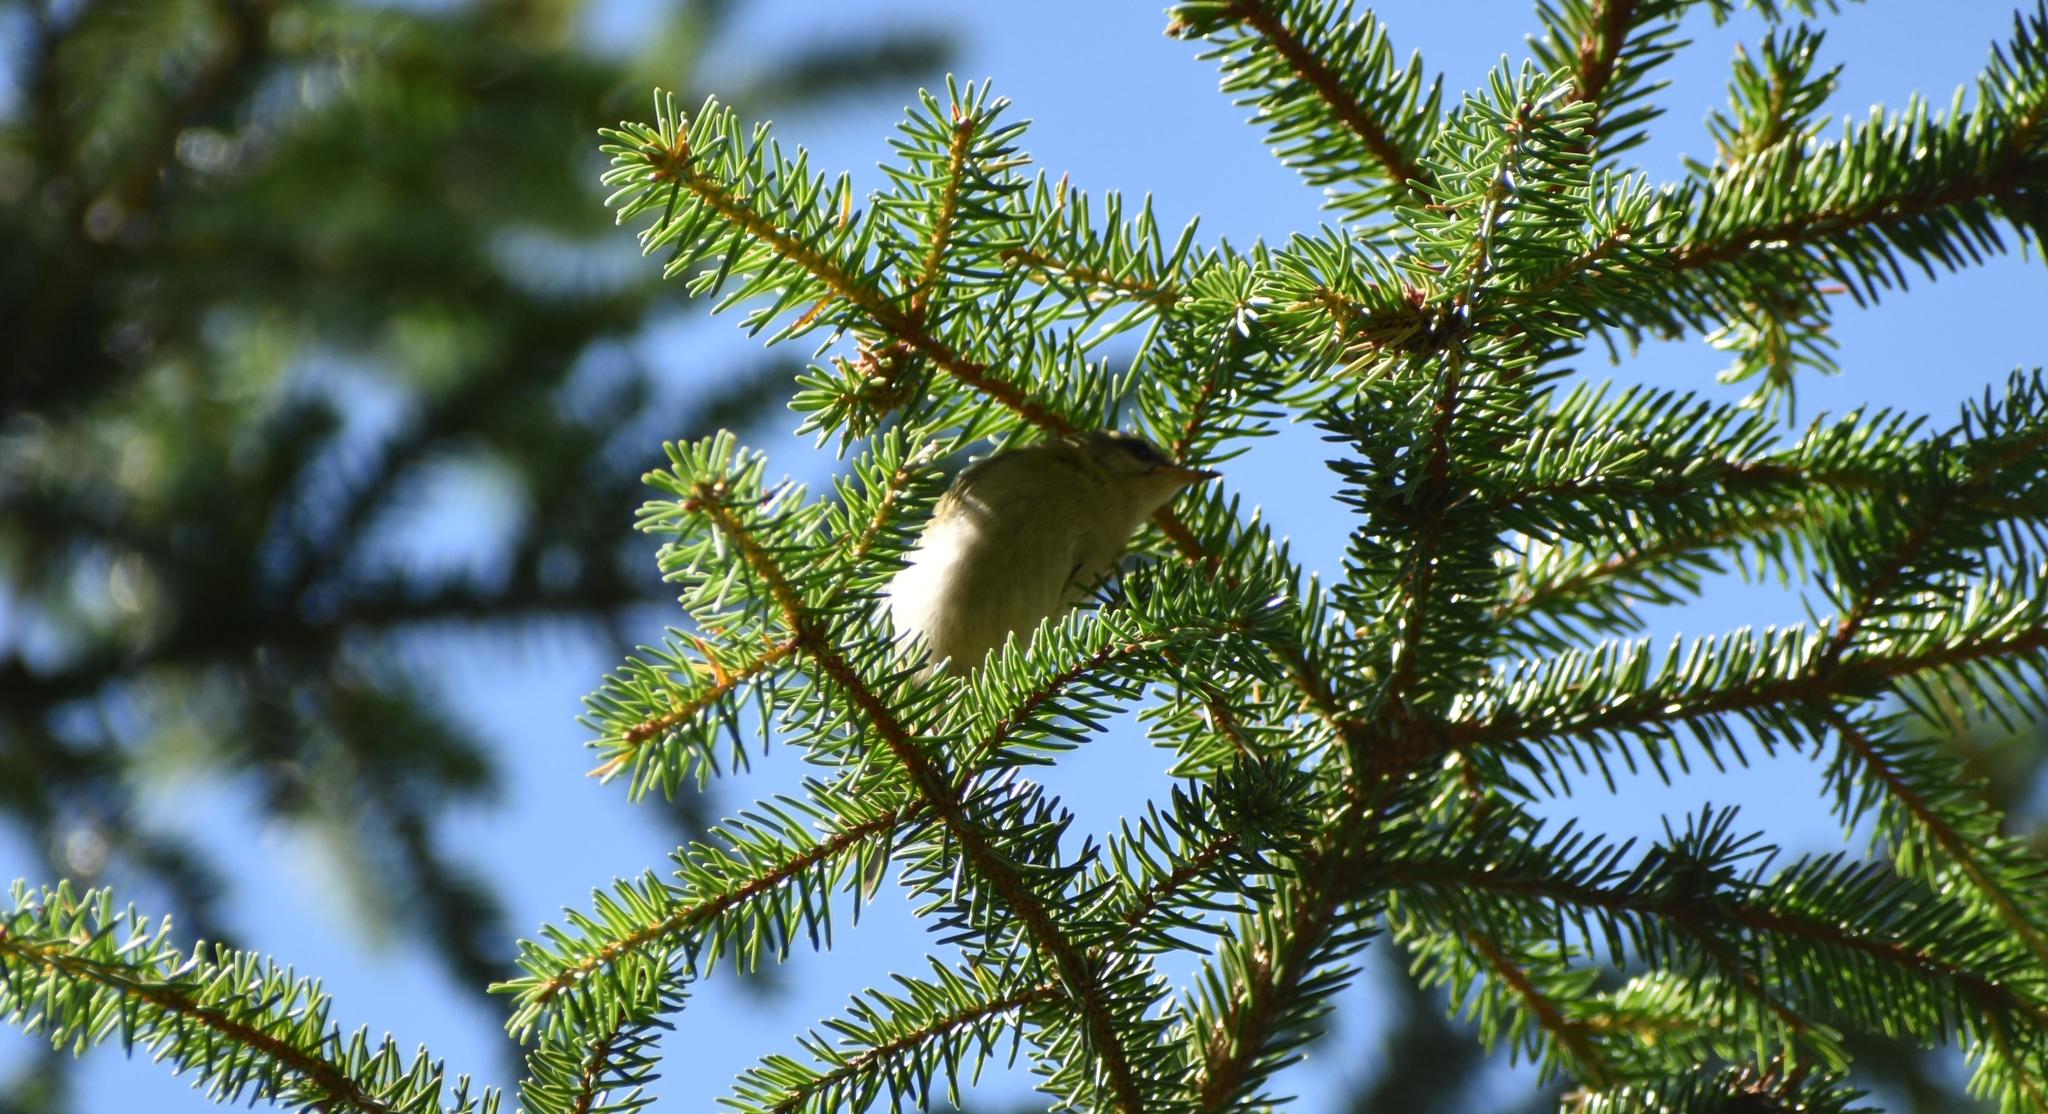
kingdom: Animalia
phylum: Chordata
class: Aves
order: Passeriformes
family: Regulidae
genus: Regulus
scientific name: Regulus ignicapilla
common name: Firecrest
